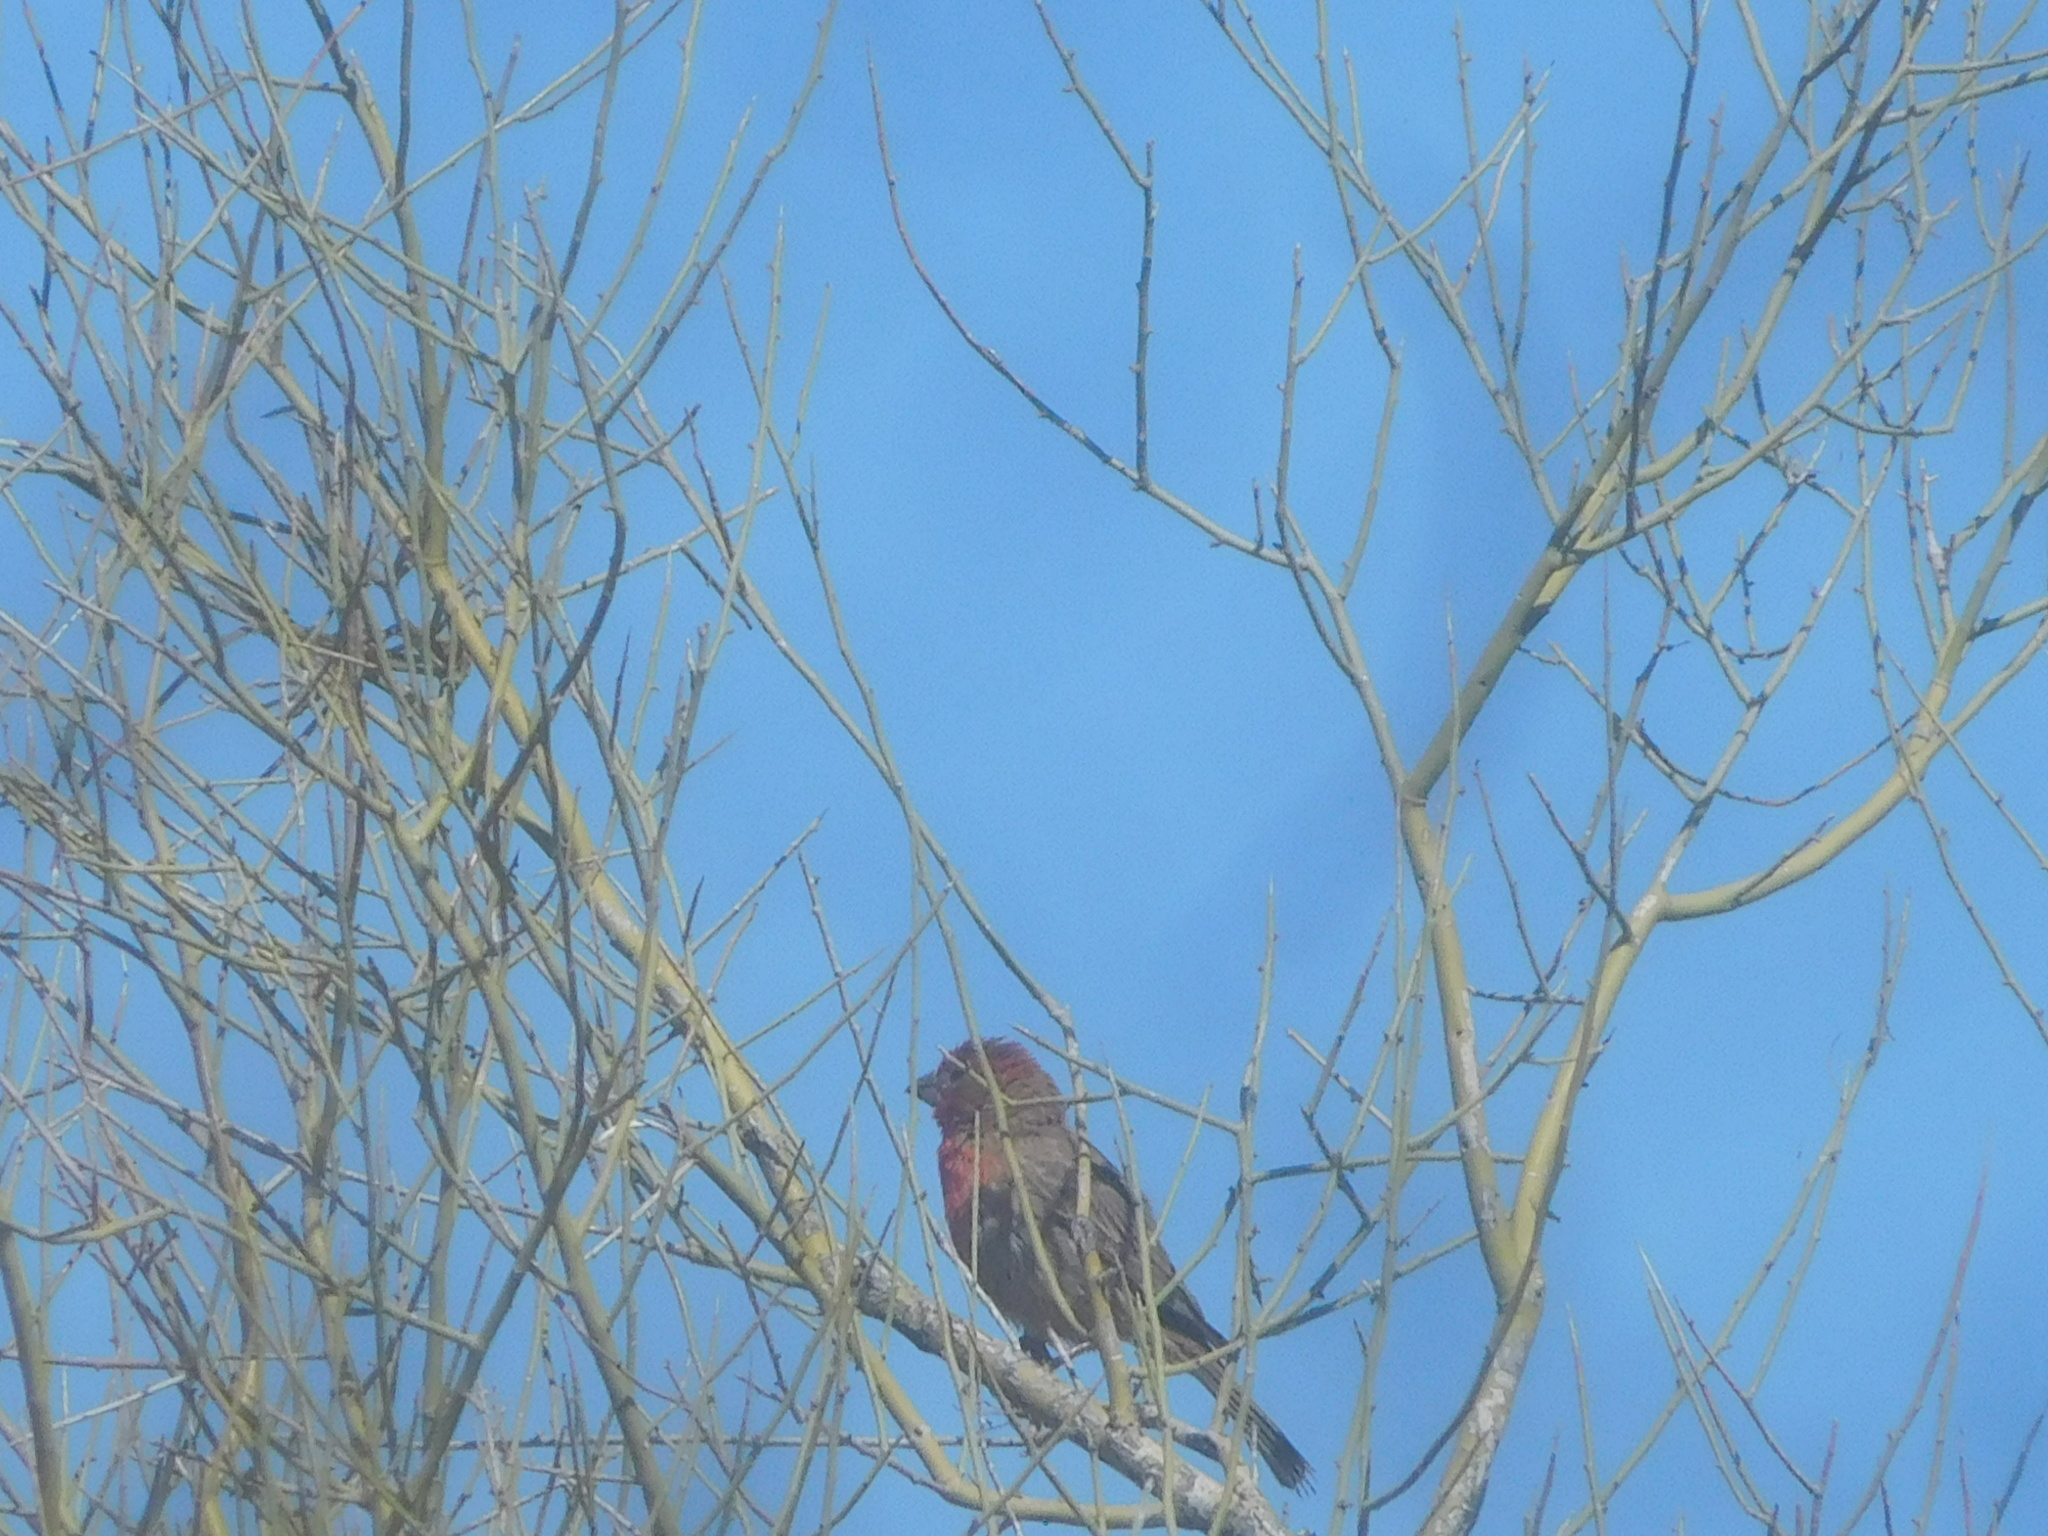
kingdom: Animalia
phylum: Chordata
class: Aves
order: Passeriformes
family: Fringillidae
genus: Haemorhous
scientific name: Haemorhous mexicanus
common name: House finch
